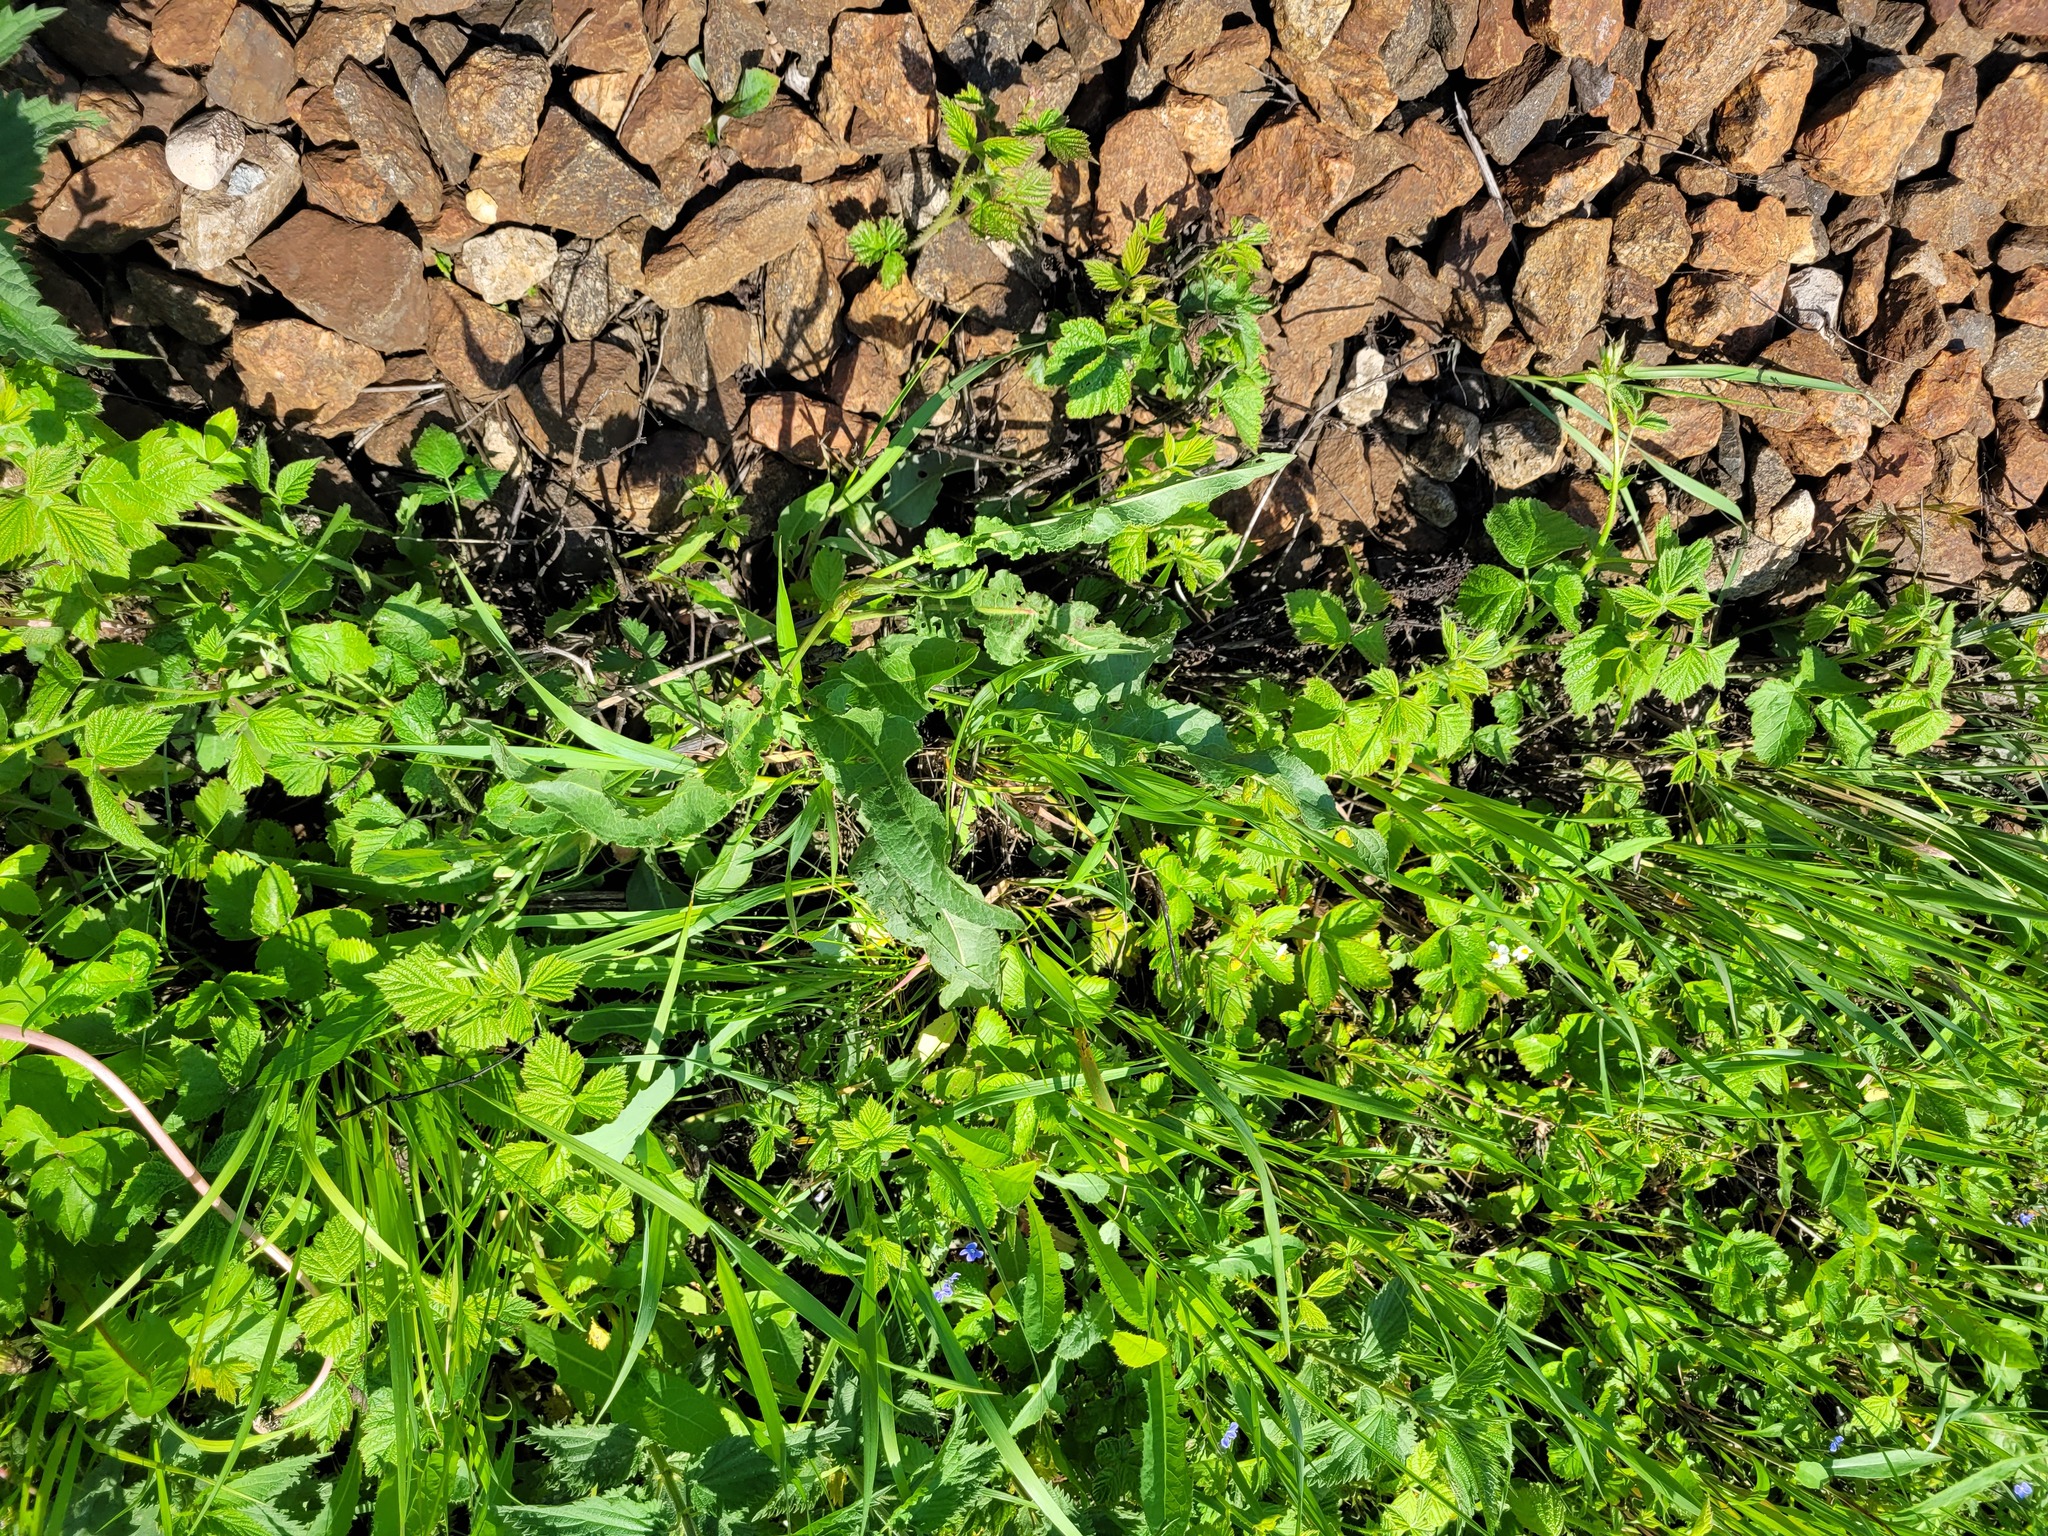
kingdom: Plantae
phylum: Tracheophyta
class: Magnoliopsida
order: Caryophyllales
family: Polygonaceae
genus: Rumex
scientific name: Rumex crispus
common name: Curled dock
